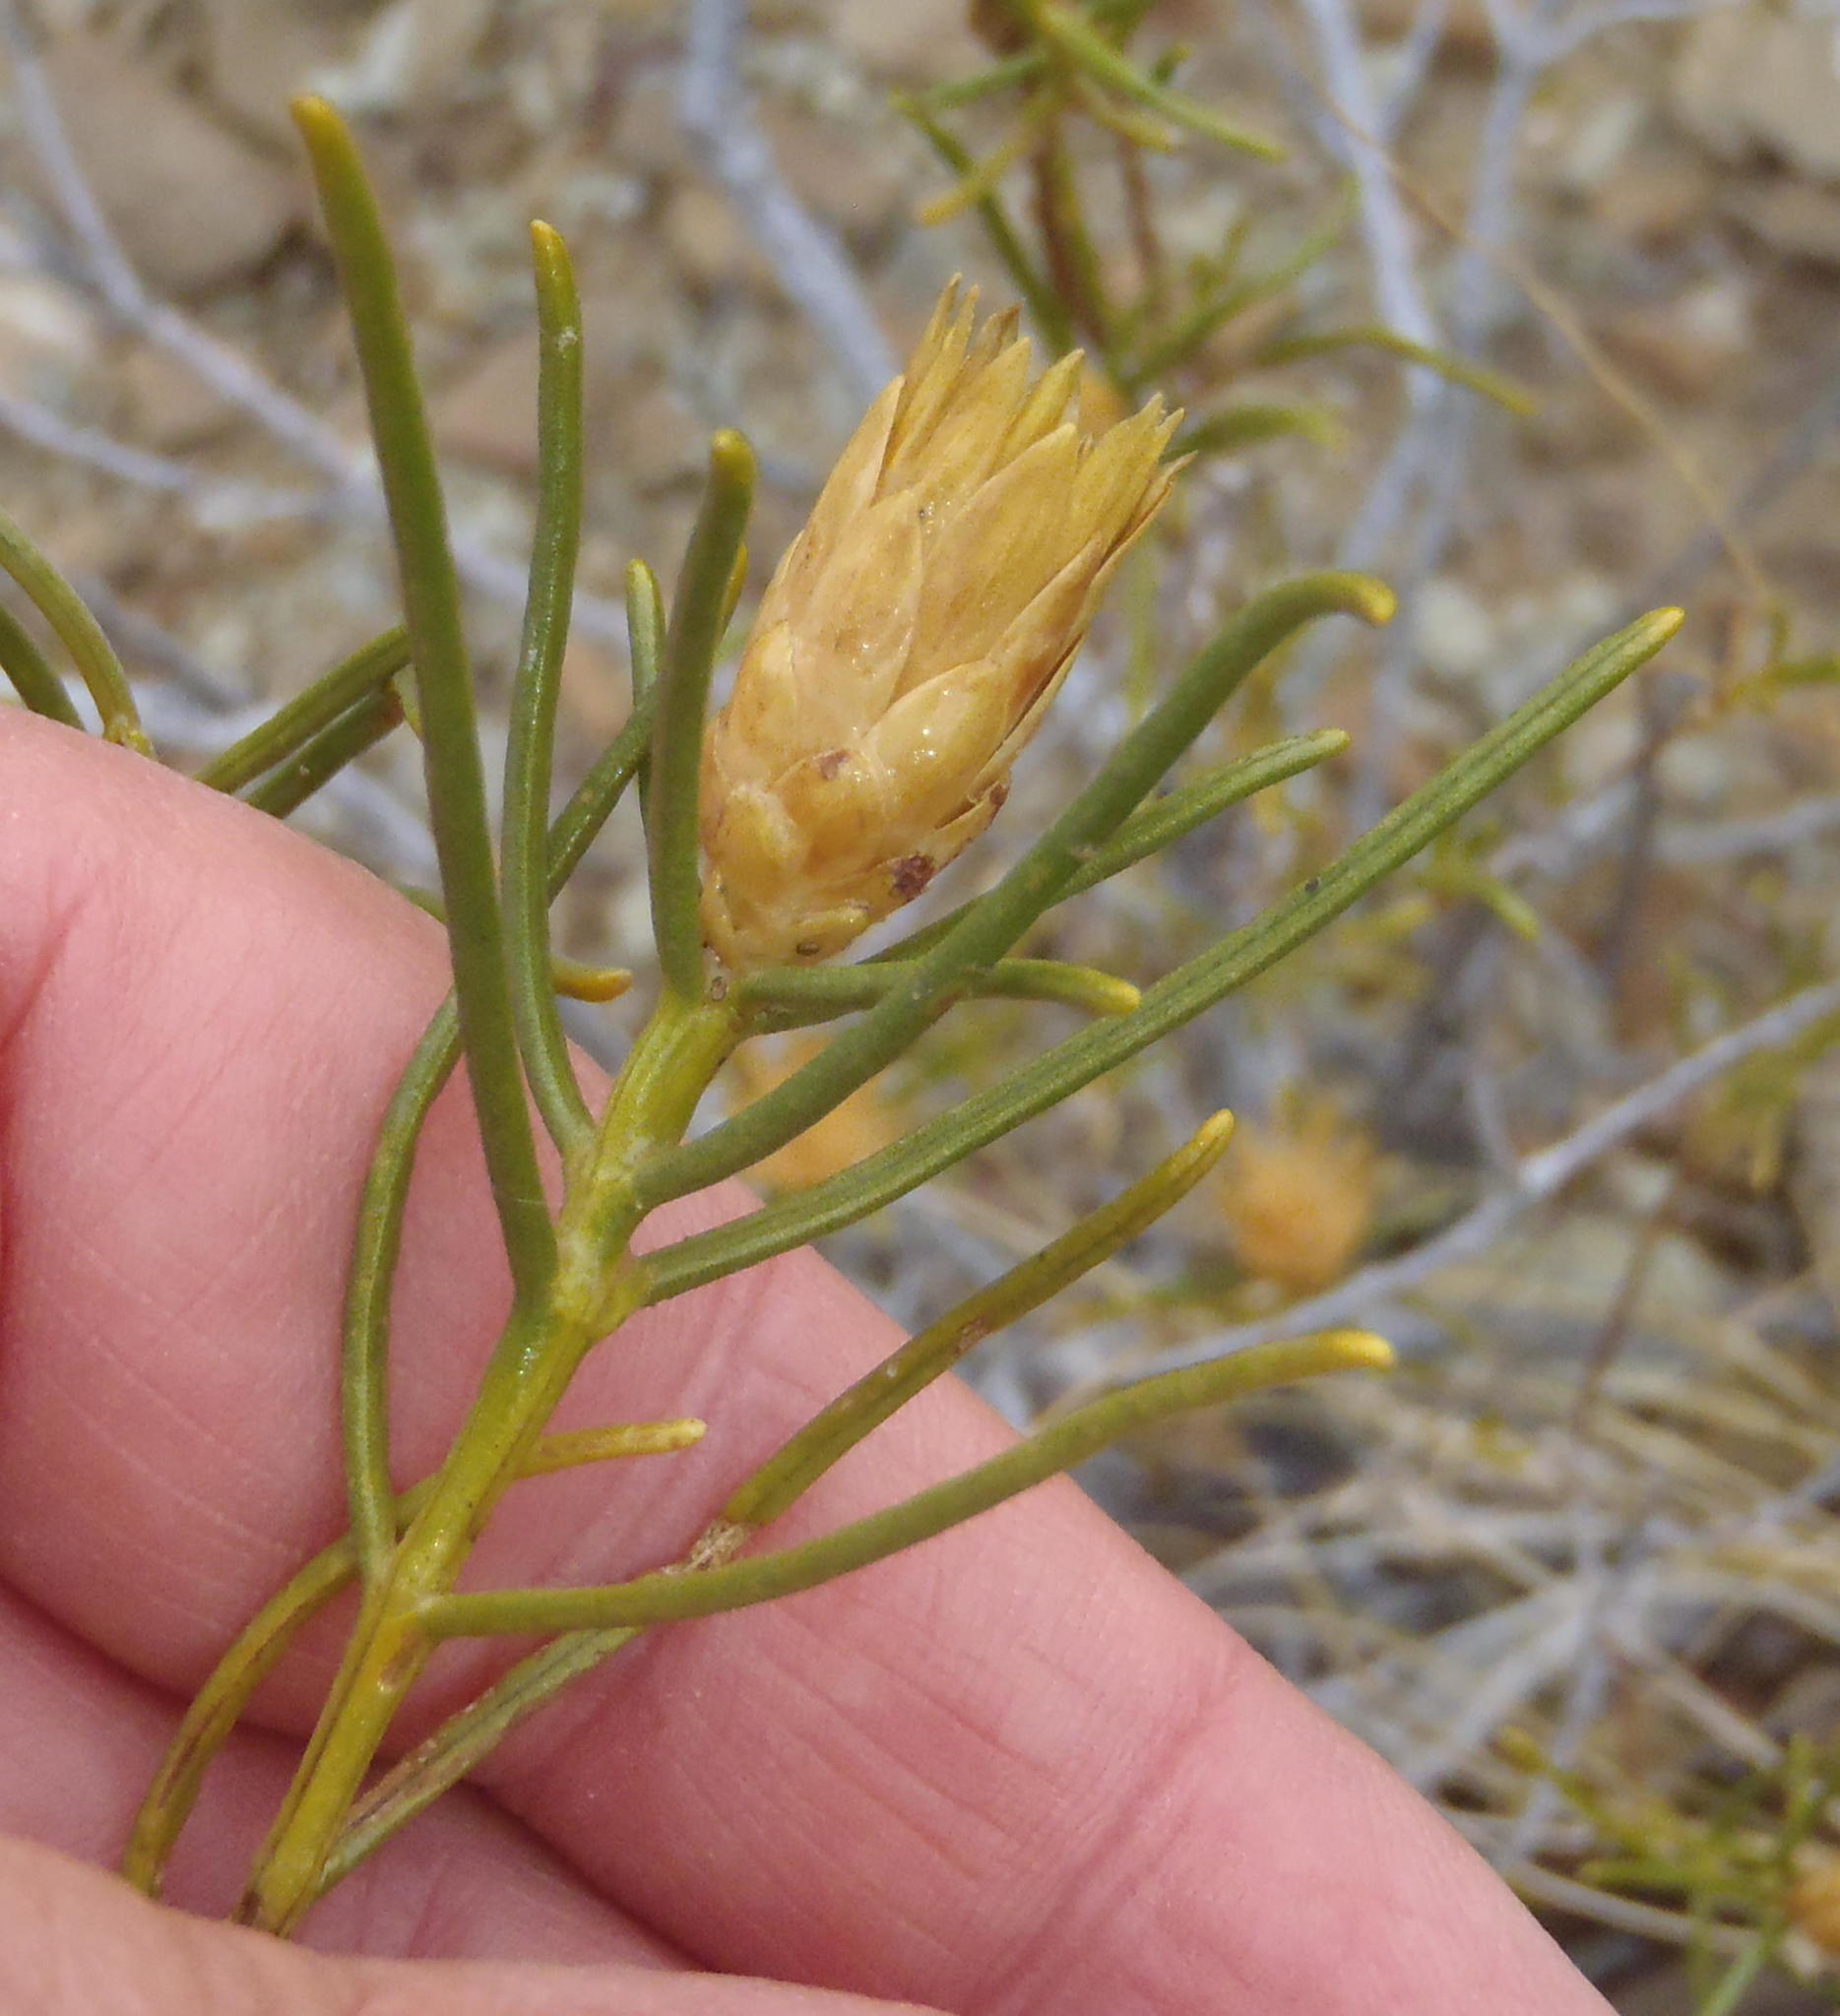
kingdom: Plantae
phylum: Tracheophyta
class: Magnoliopsida
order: Asterales
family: Asteraceae
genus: Pteronia
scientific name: Pteronia flexicaulis
